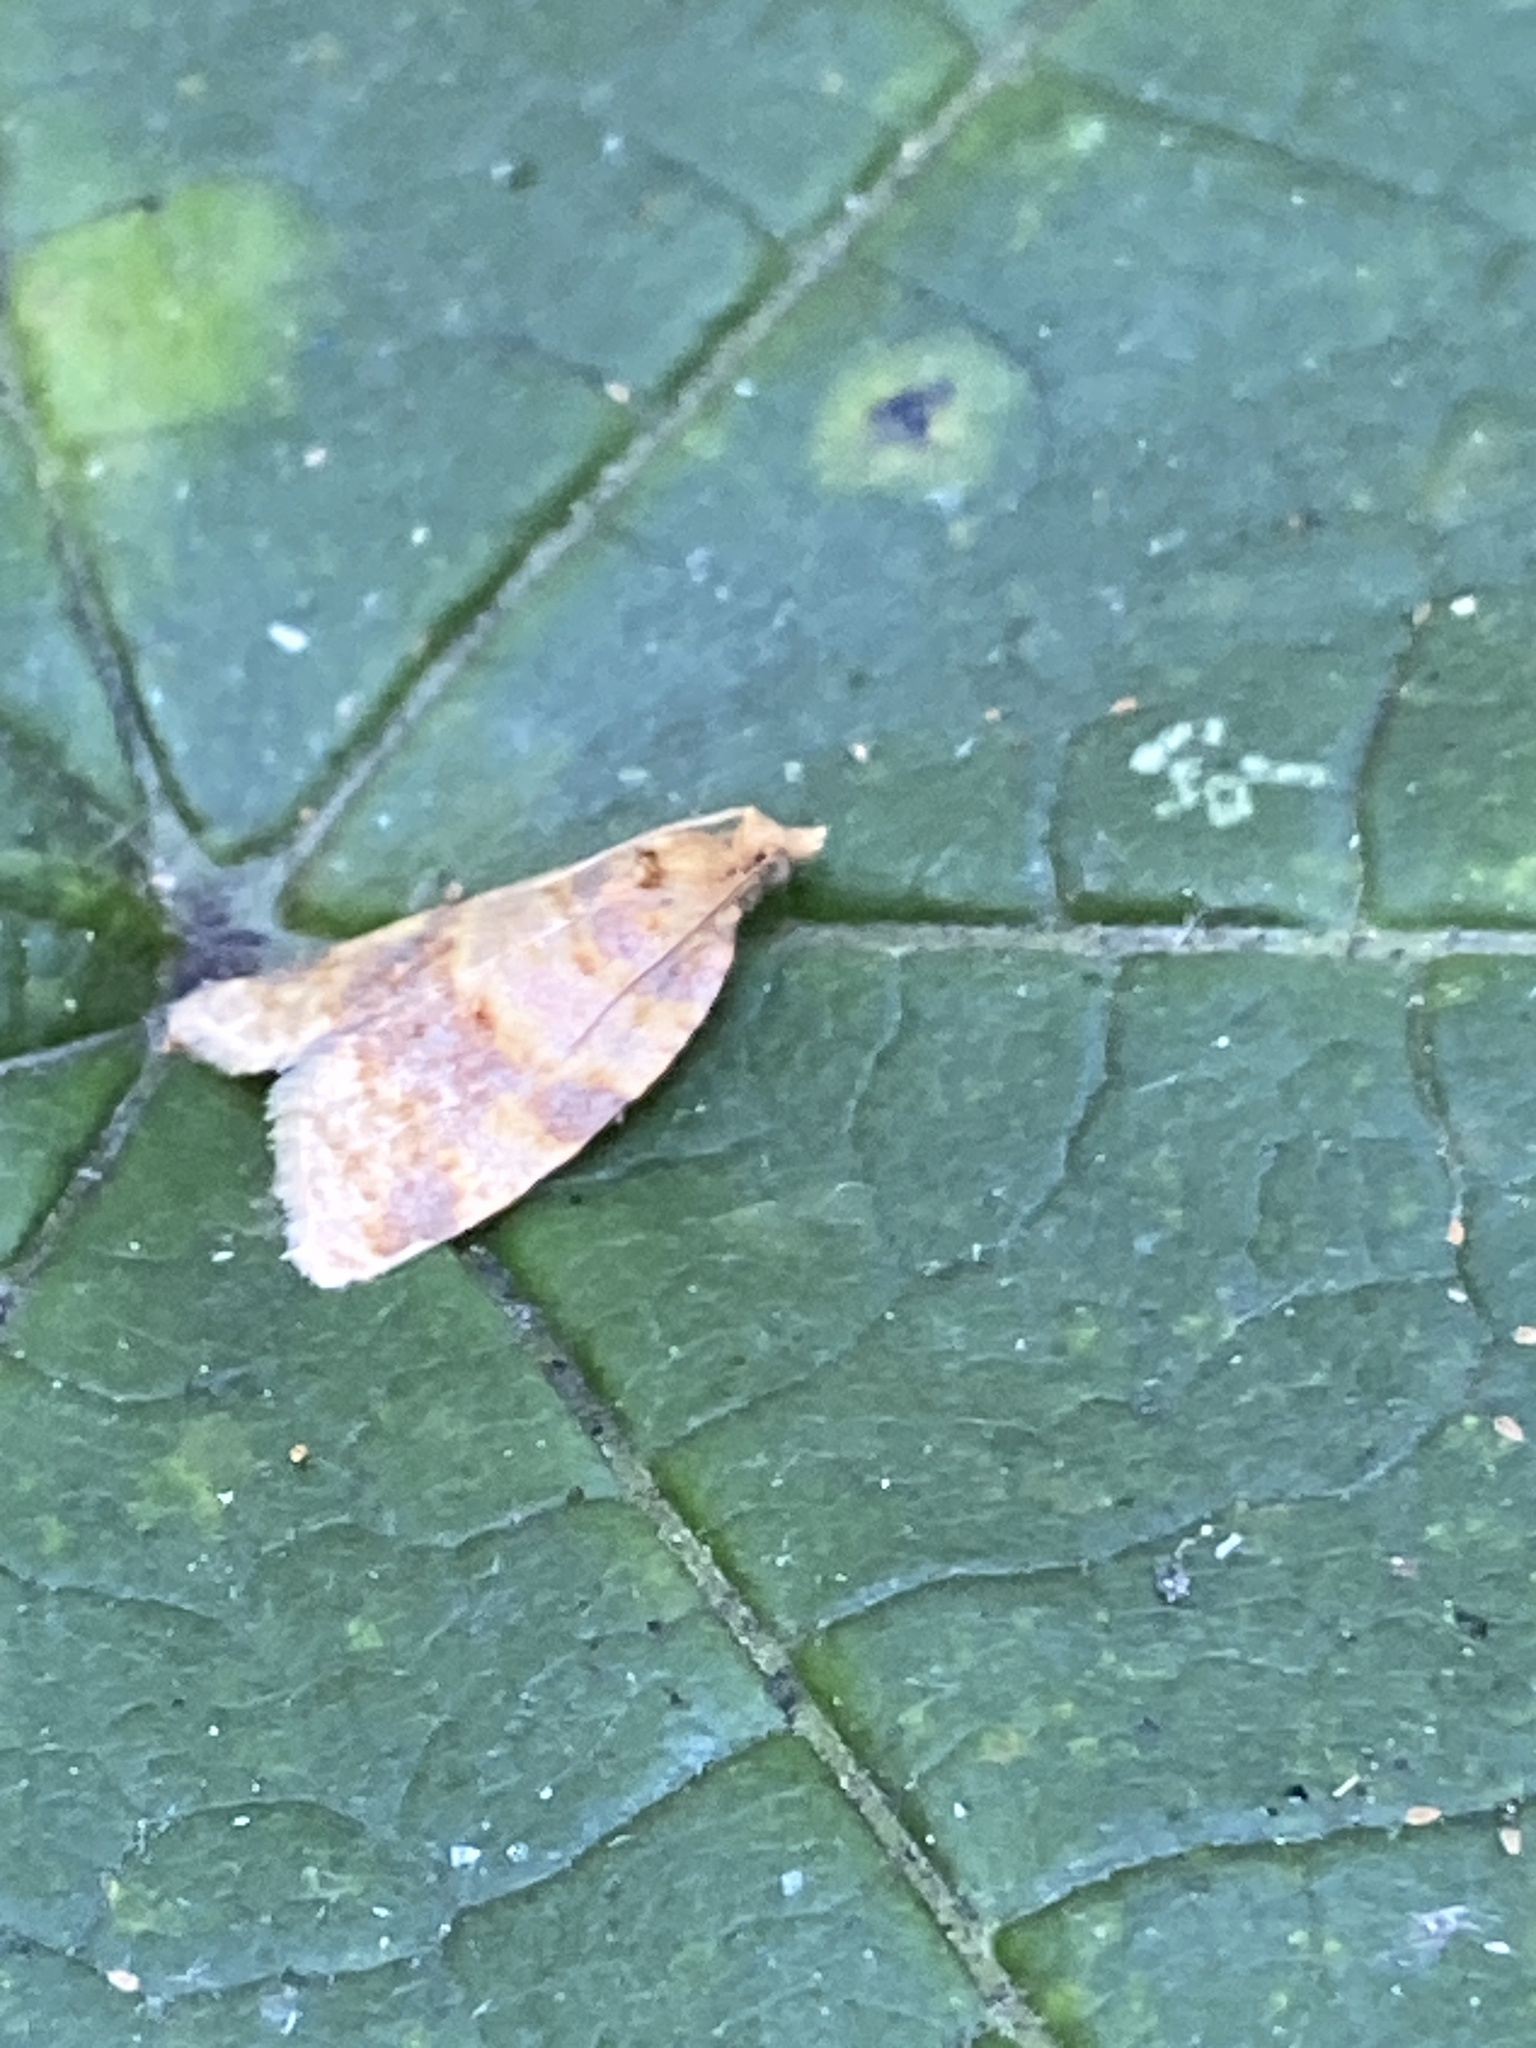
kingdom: Animalia
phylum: Arthropoda
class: Insecta
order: Lepidoptera
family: Tortricidae
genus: Epagoge
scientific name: Epagoge grotiana
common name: Brown-barred twist
